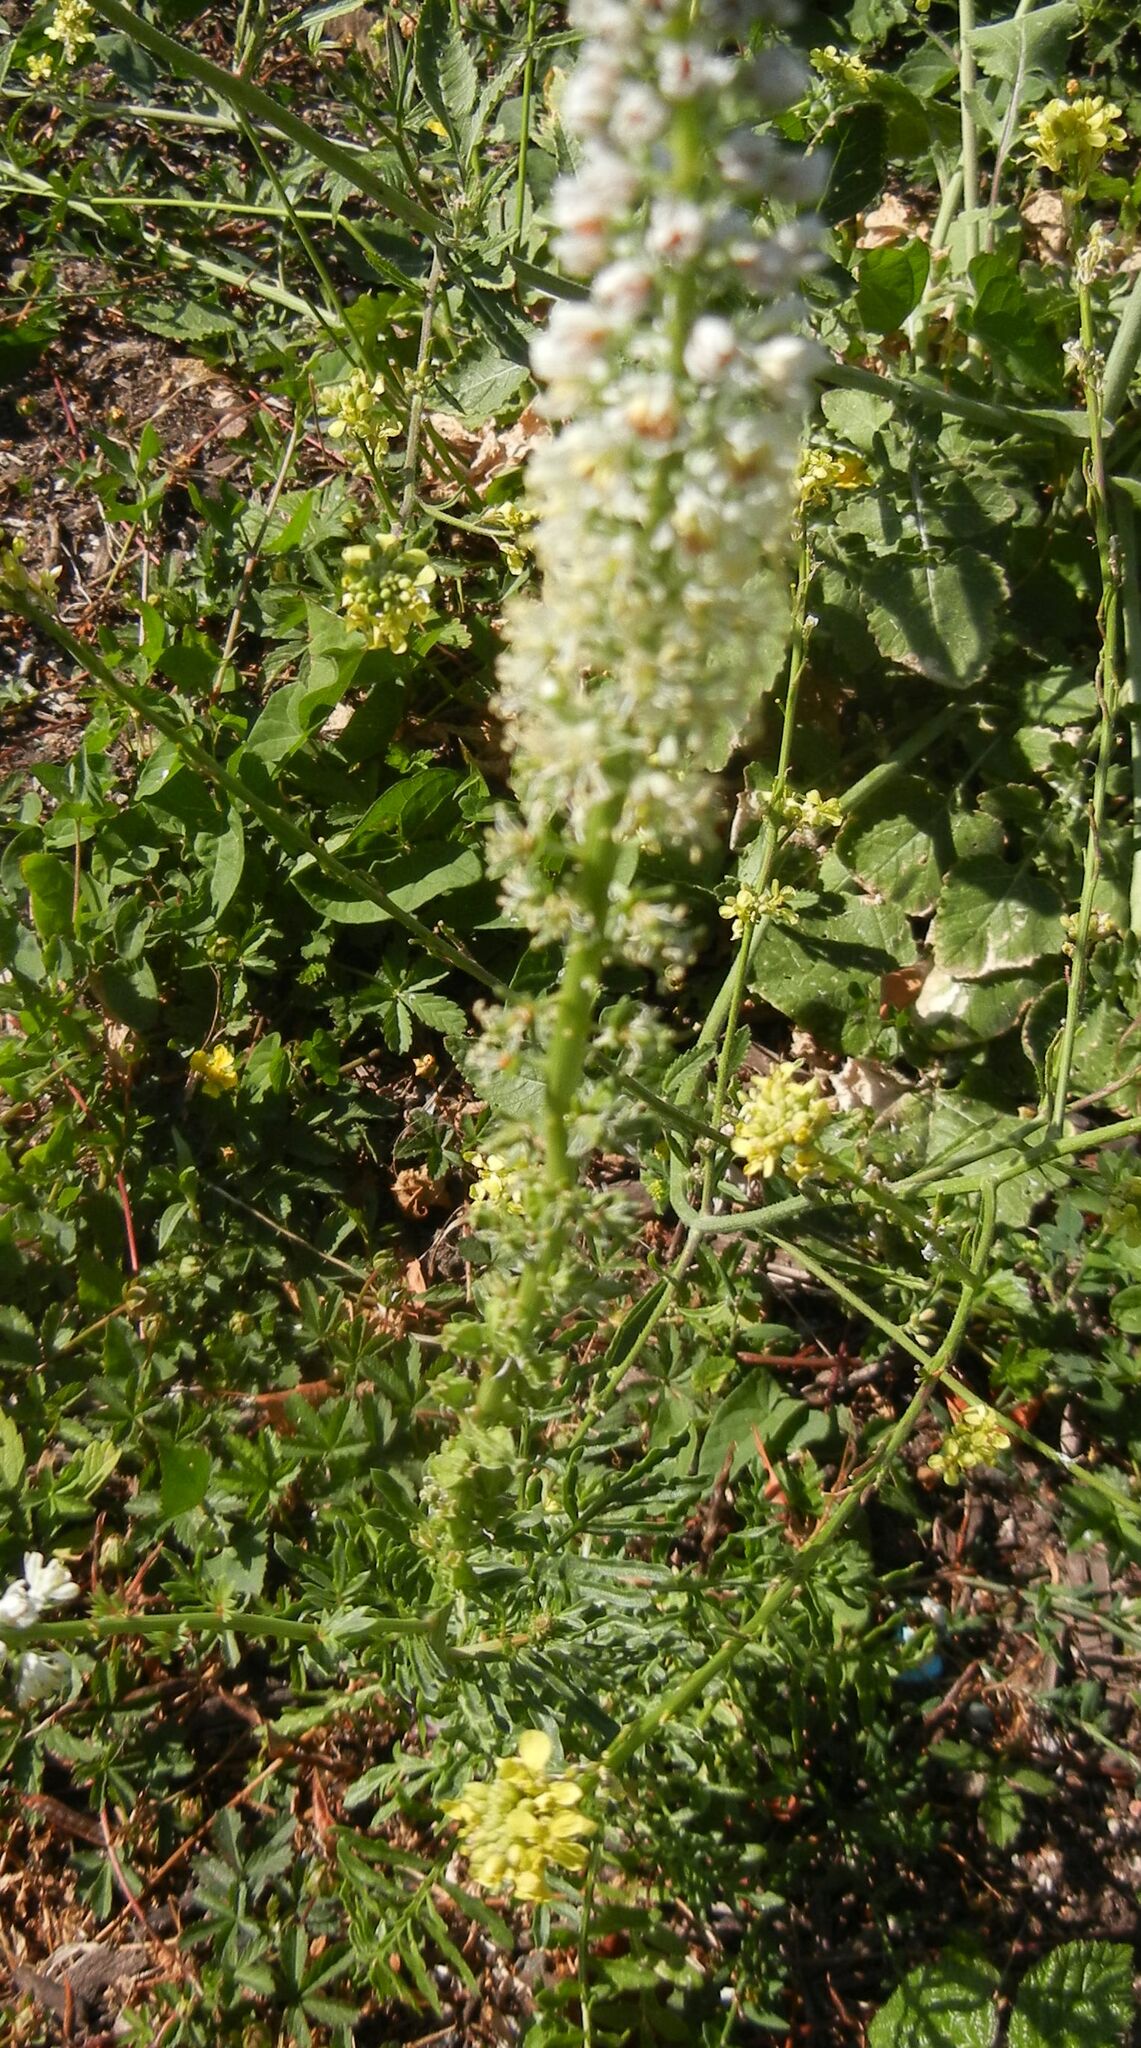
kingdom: Plantae
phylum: Tracheophyta
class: Magnoliopsida
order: Brassicales
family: Resedaceae
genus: Reseda
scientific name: Reseda alba
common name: White mignonette
